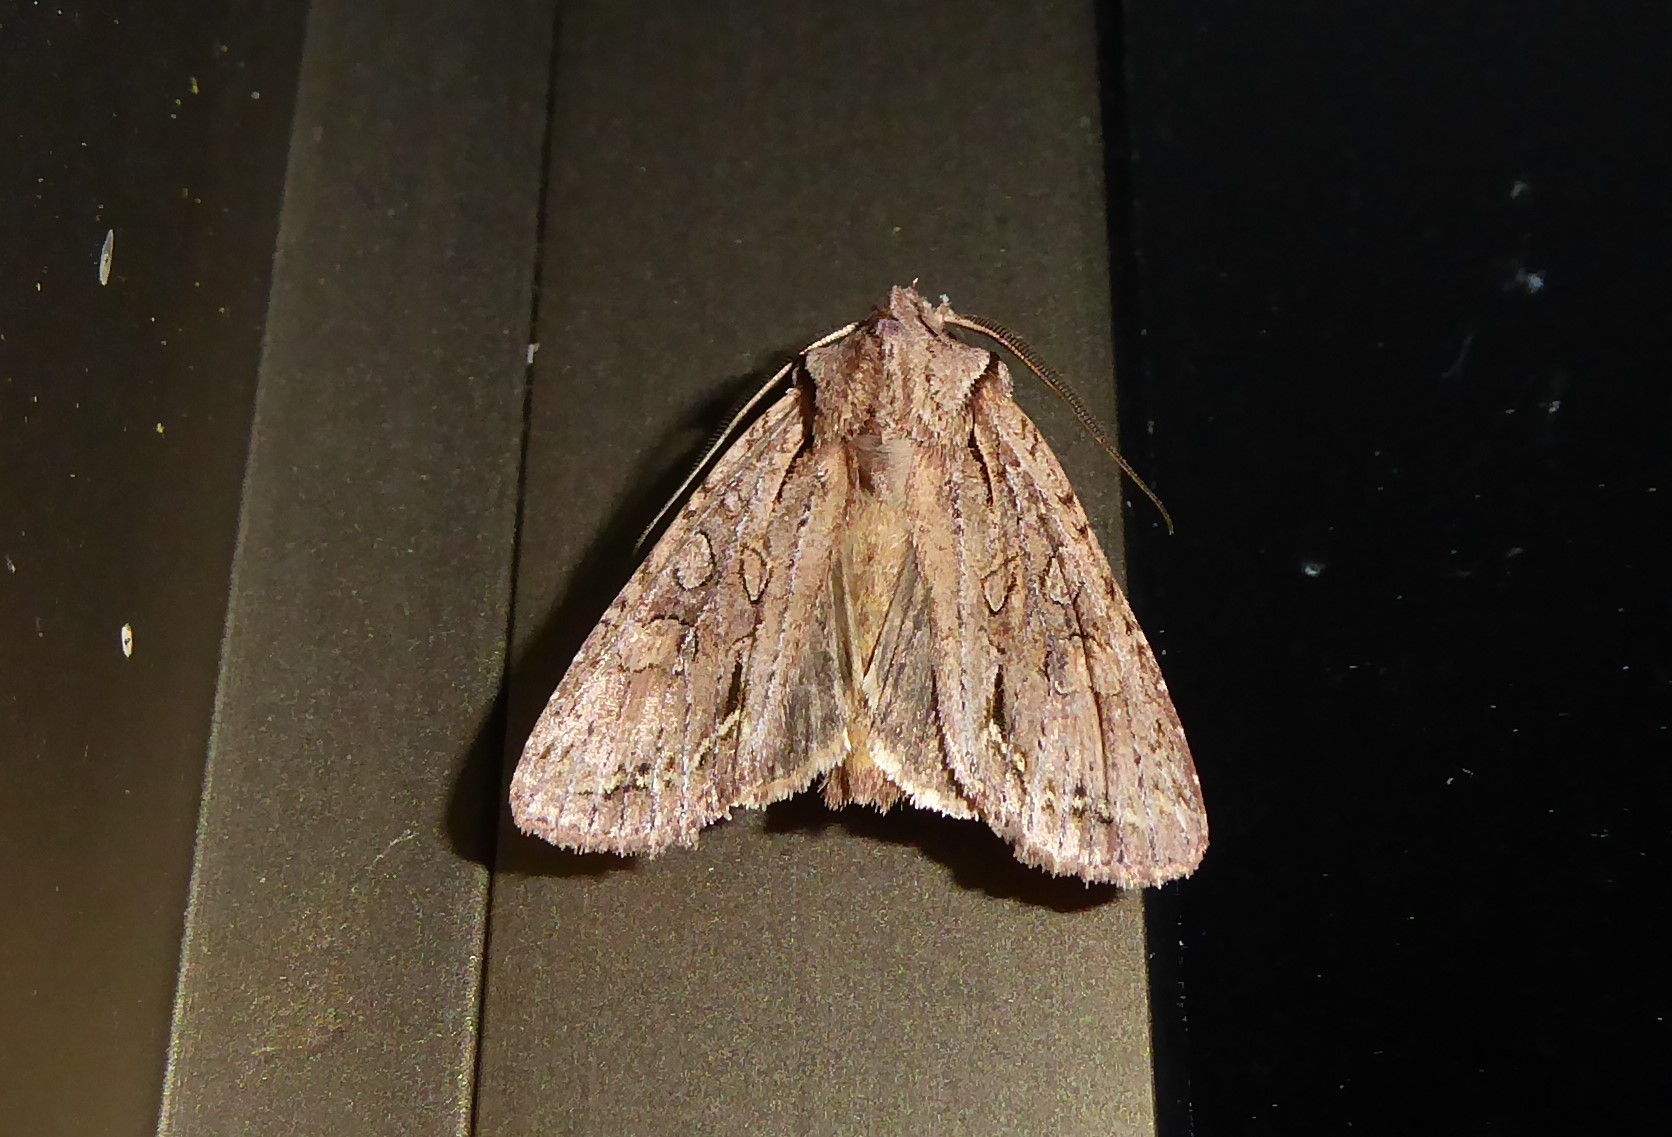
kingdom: Animalia
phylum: Arthropoda
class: Insecta
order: Lepidoptera
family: Noctuidae
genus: Ichneutica
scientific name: Ichneutica
